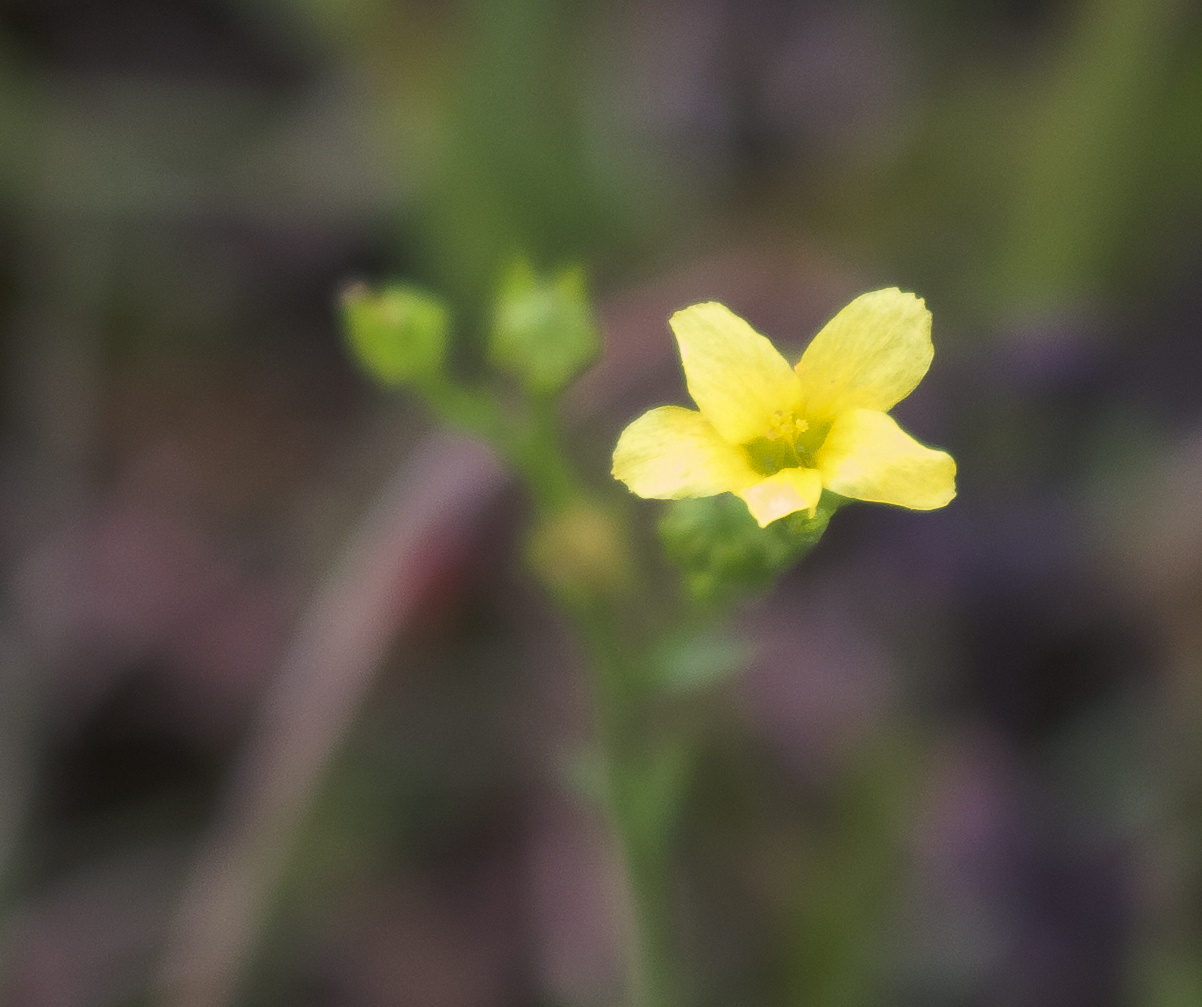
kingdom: Plantae
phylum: Tracheophyta
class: Magnoliopsida
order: Malpighiales
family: Linaceae
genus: Linum
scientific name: Linum sulcatum
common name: Grooved flax
